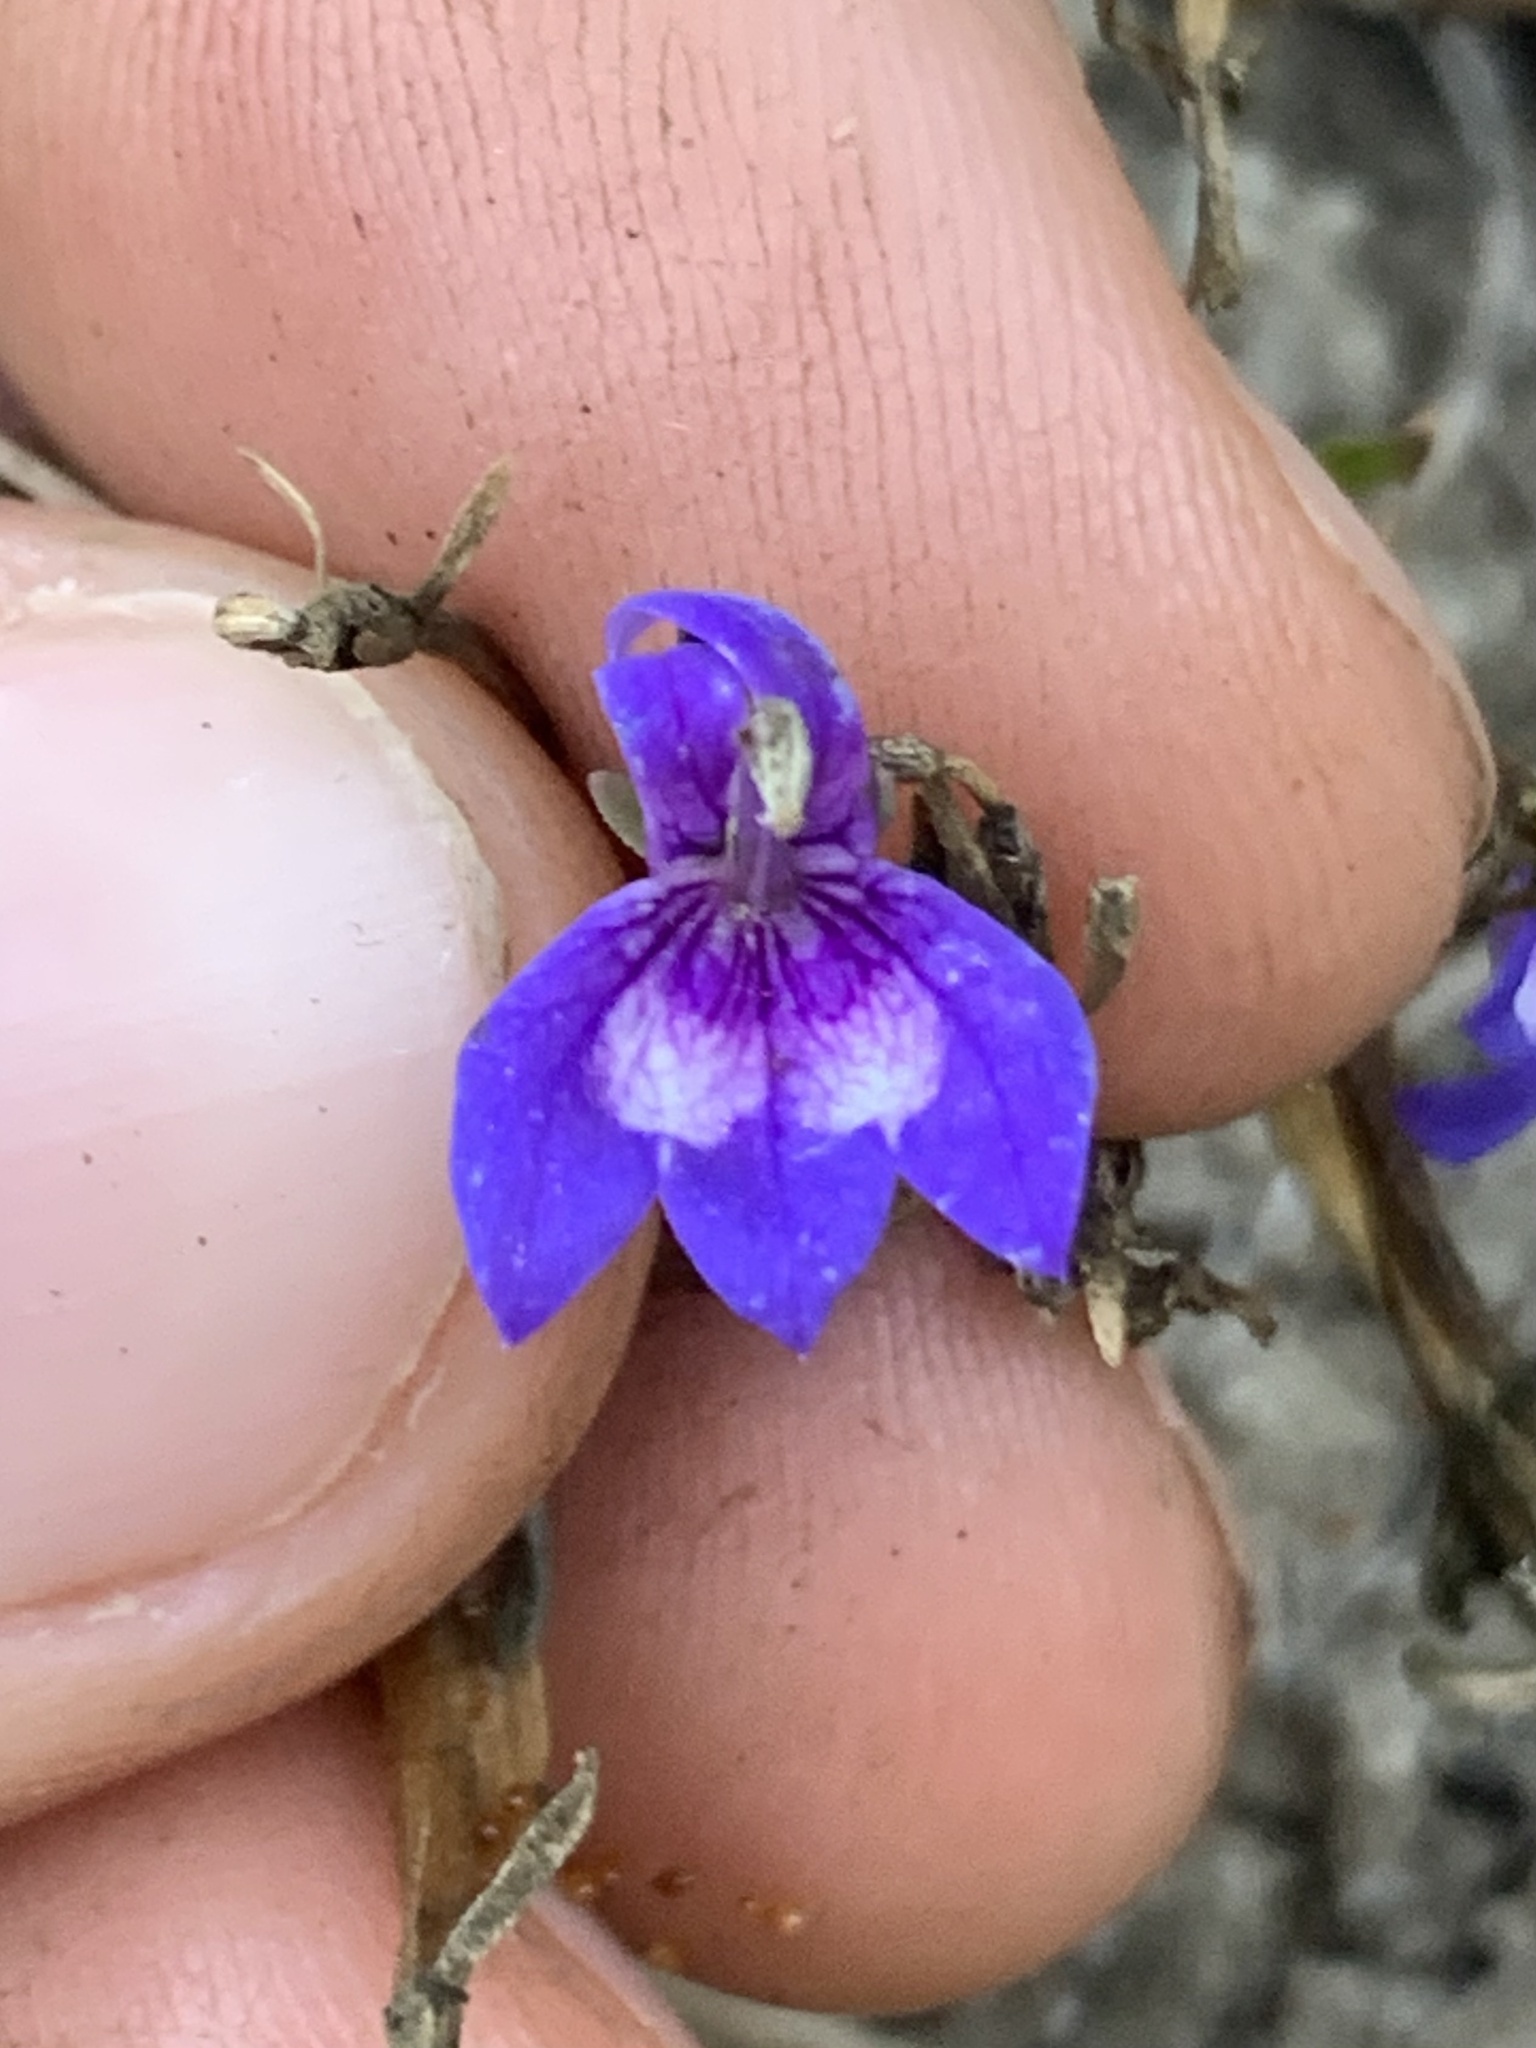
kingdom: Plantae
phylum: Tracheophyta
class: Magnoliopsida
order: Asterales
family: Campanulaceae
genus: Downingia
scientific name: Downingia elegans
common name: Californian lobelia
